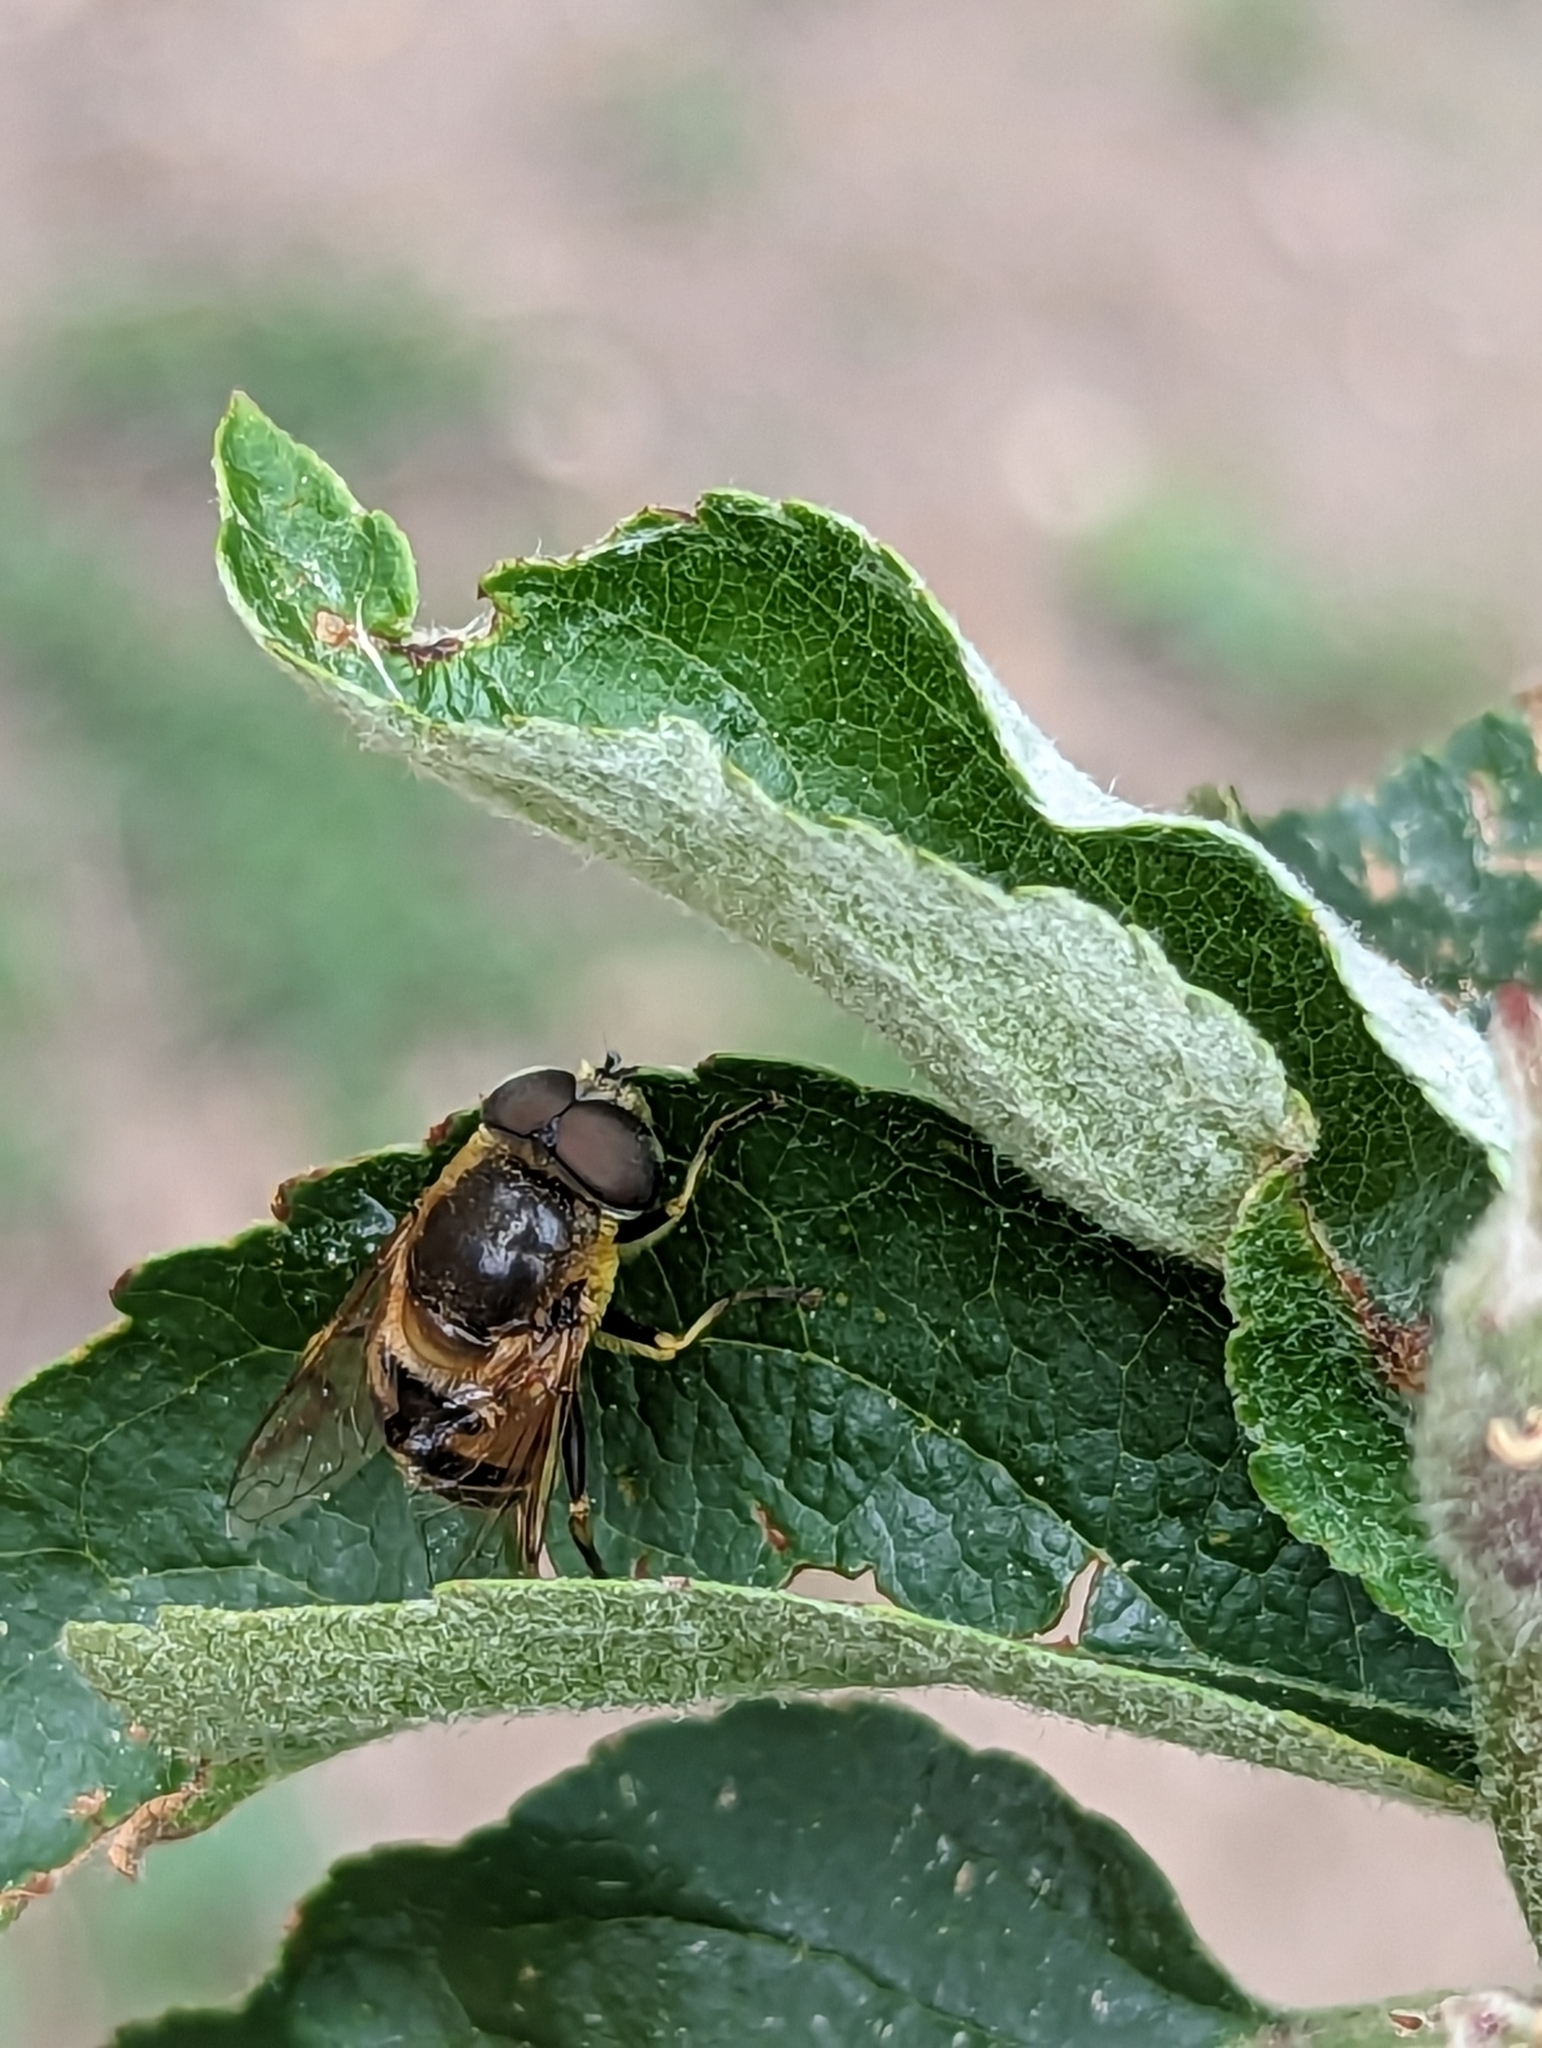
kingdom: Animalia
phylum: Arthropoda
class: Insecta
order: Diptera
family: Syrphidae
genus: Eristalis
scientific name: Eristalis stipator
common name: Yellow-shouldered drone fly
